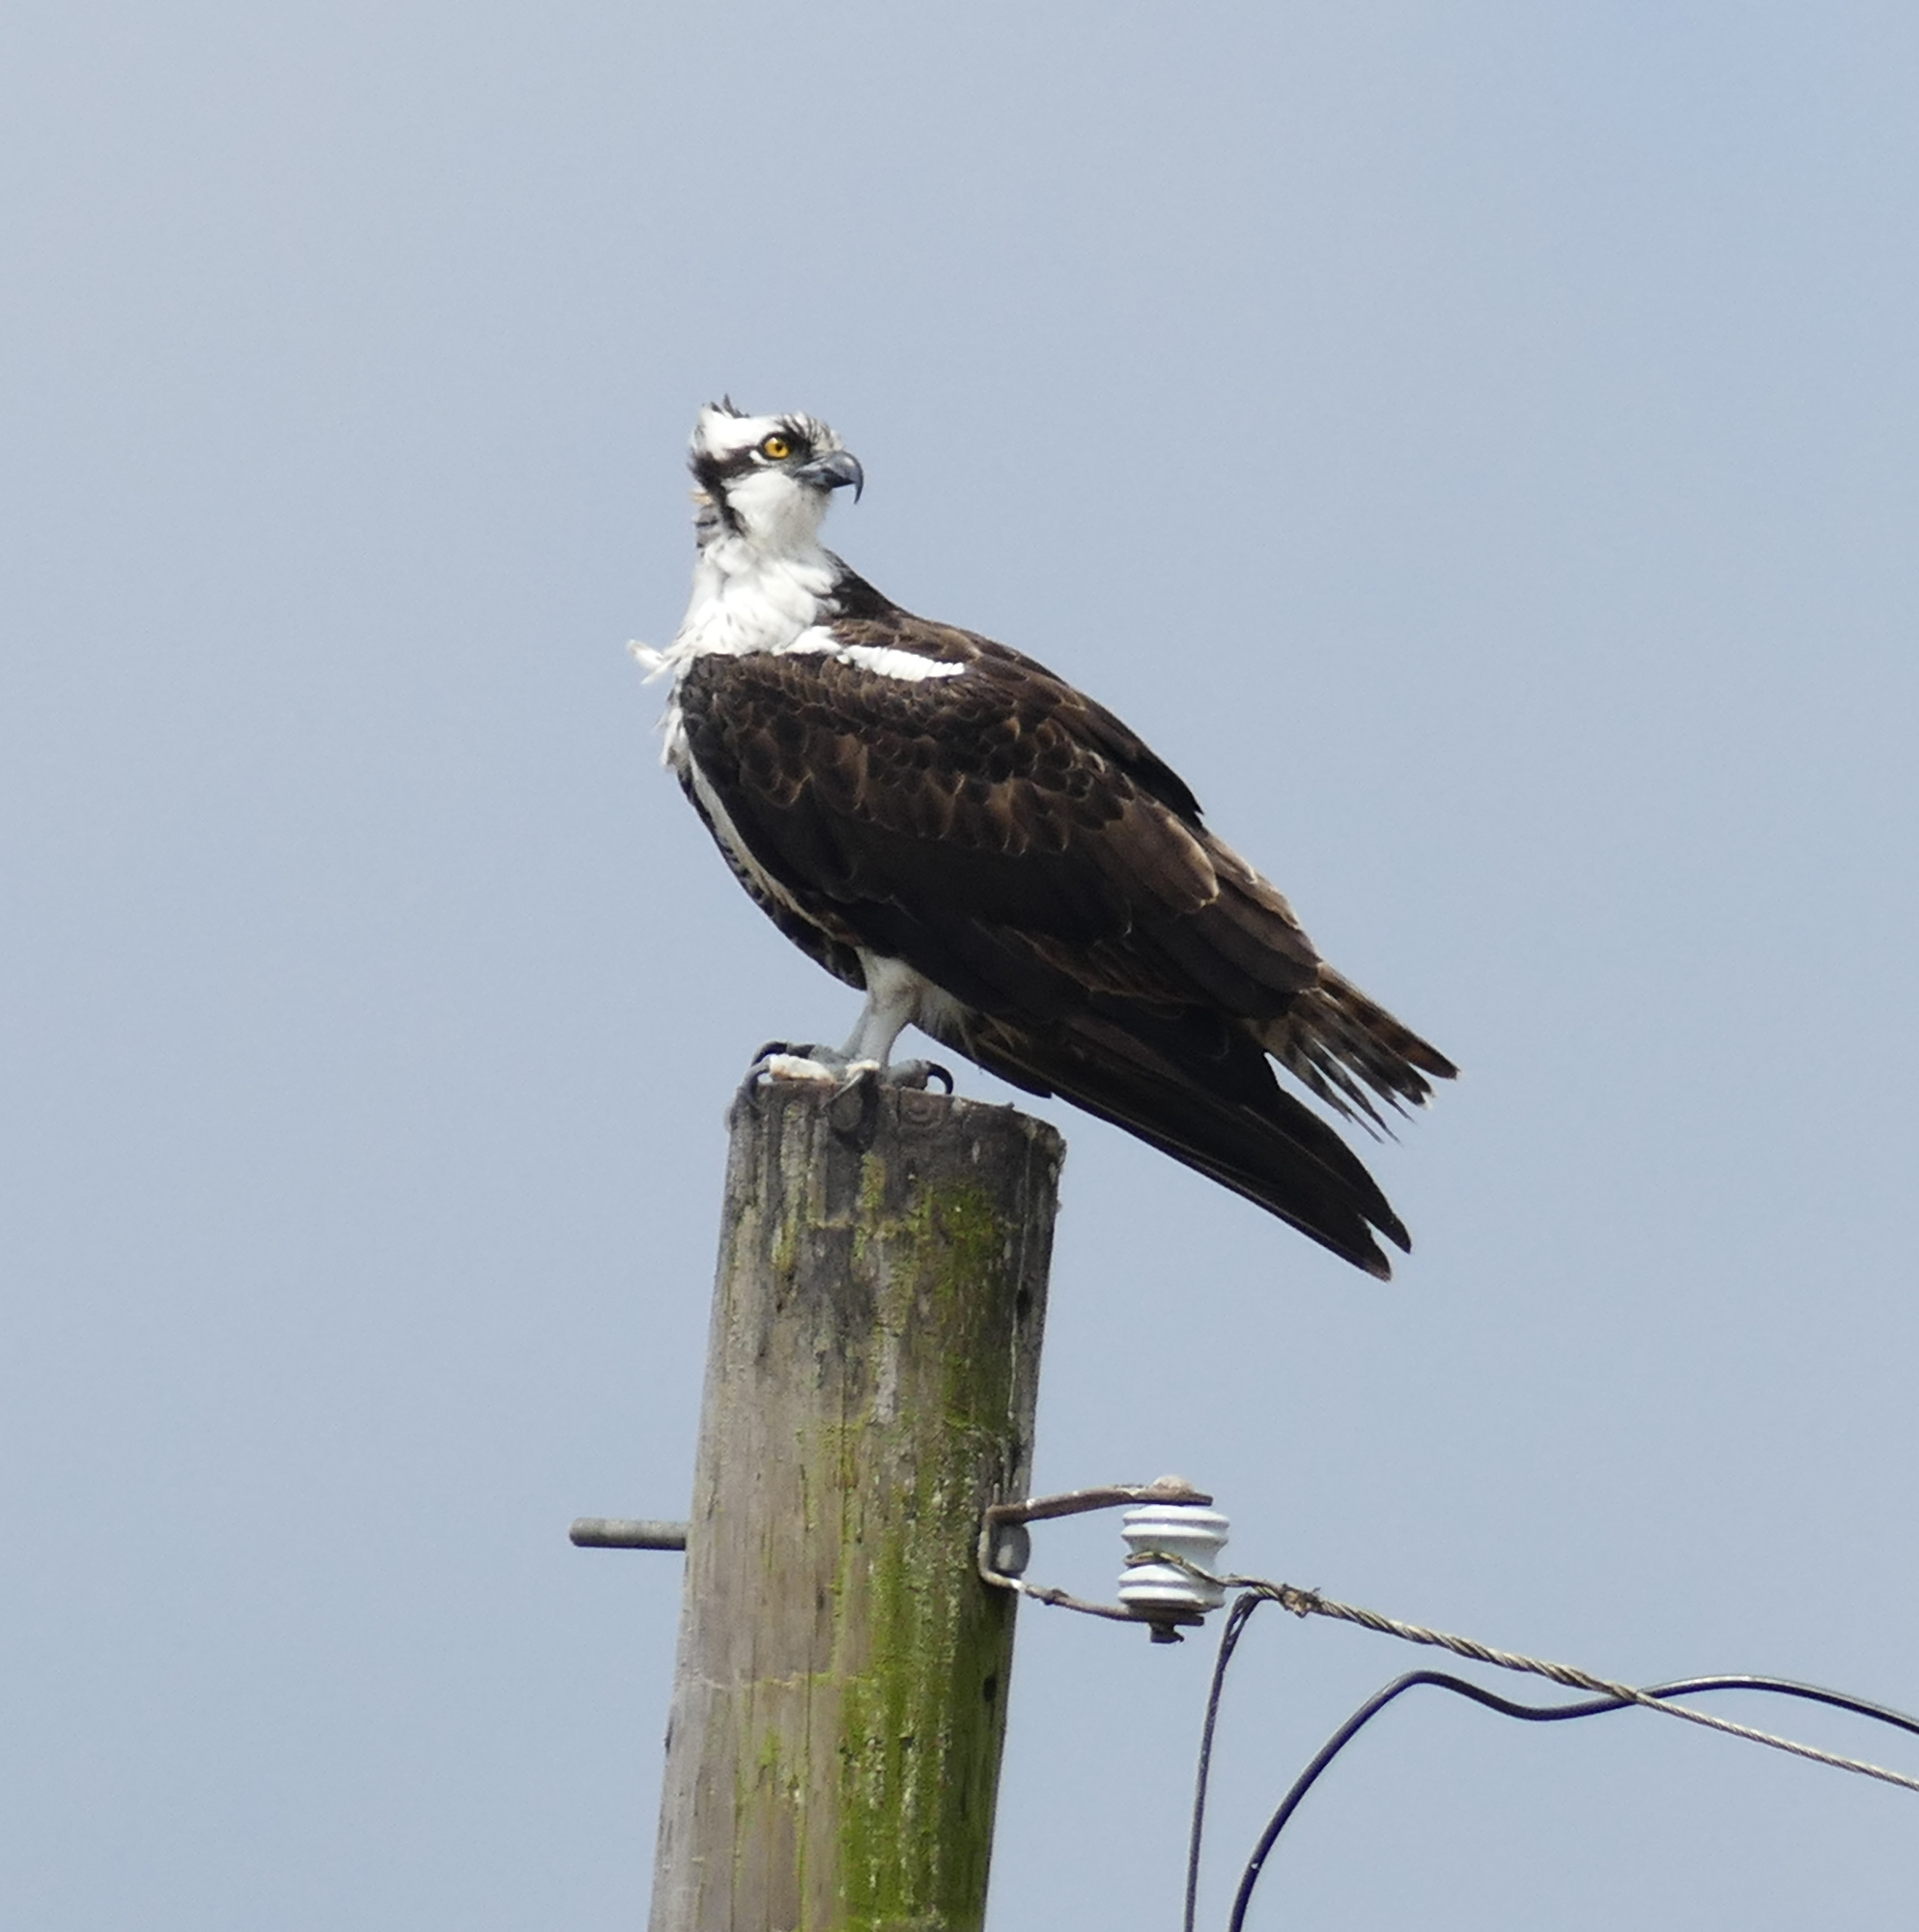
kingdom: Animalia
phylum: Chordata
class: Aves
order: Accipitriformes
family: Pandionidae
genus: Pandion
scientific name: Pandion haliaetus
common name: Osprey
